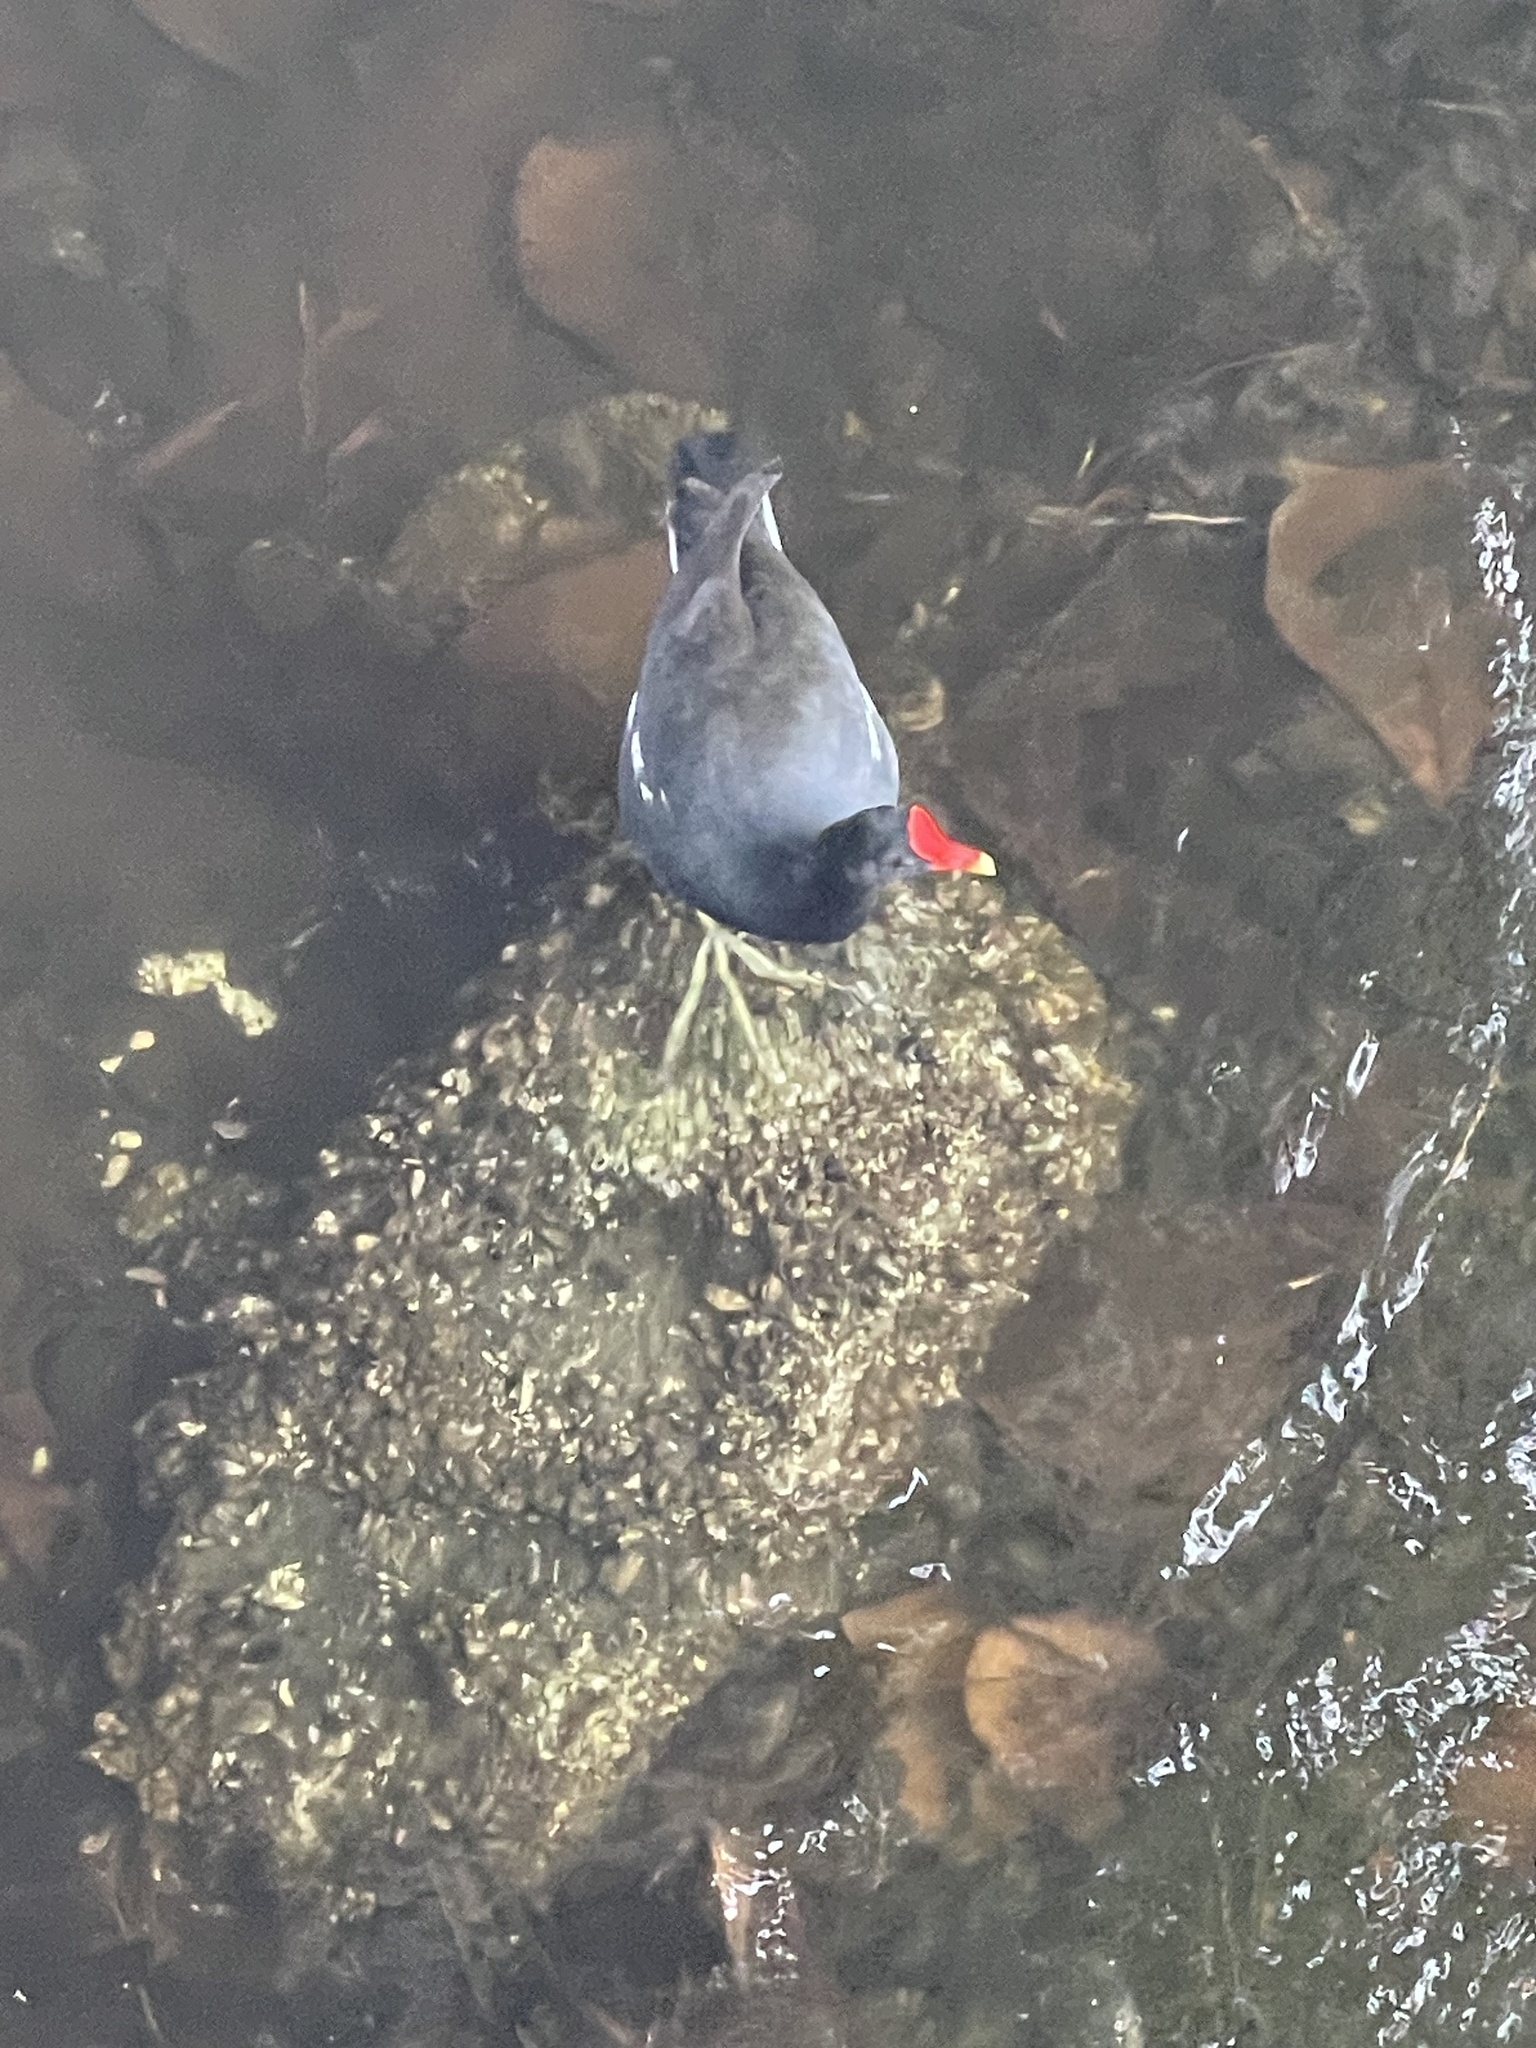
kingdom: Animalia
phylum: Chordata
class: Aves
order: Gruiformes
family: Rallidae
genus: Gallinula
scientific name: Gallinula chloropus
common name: Common moorhen
